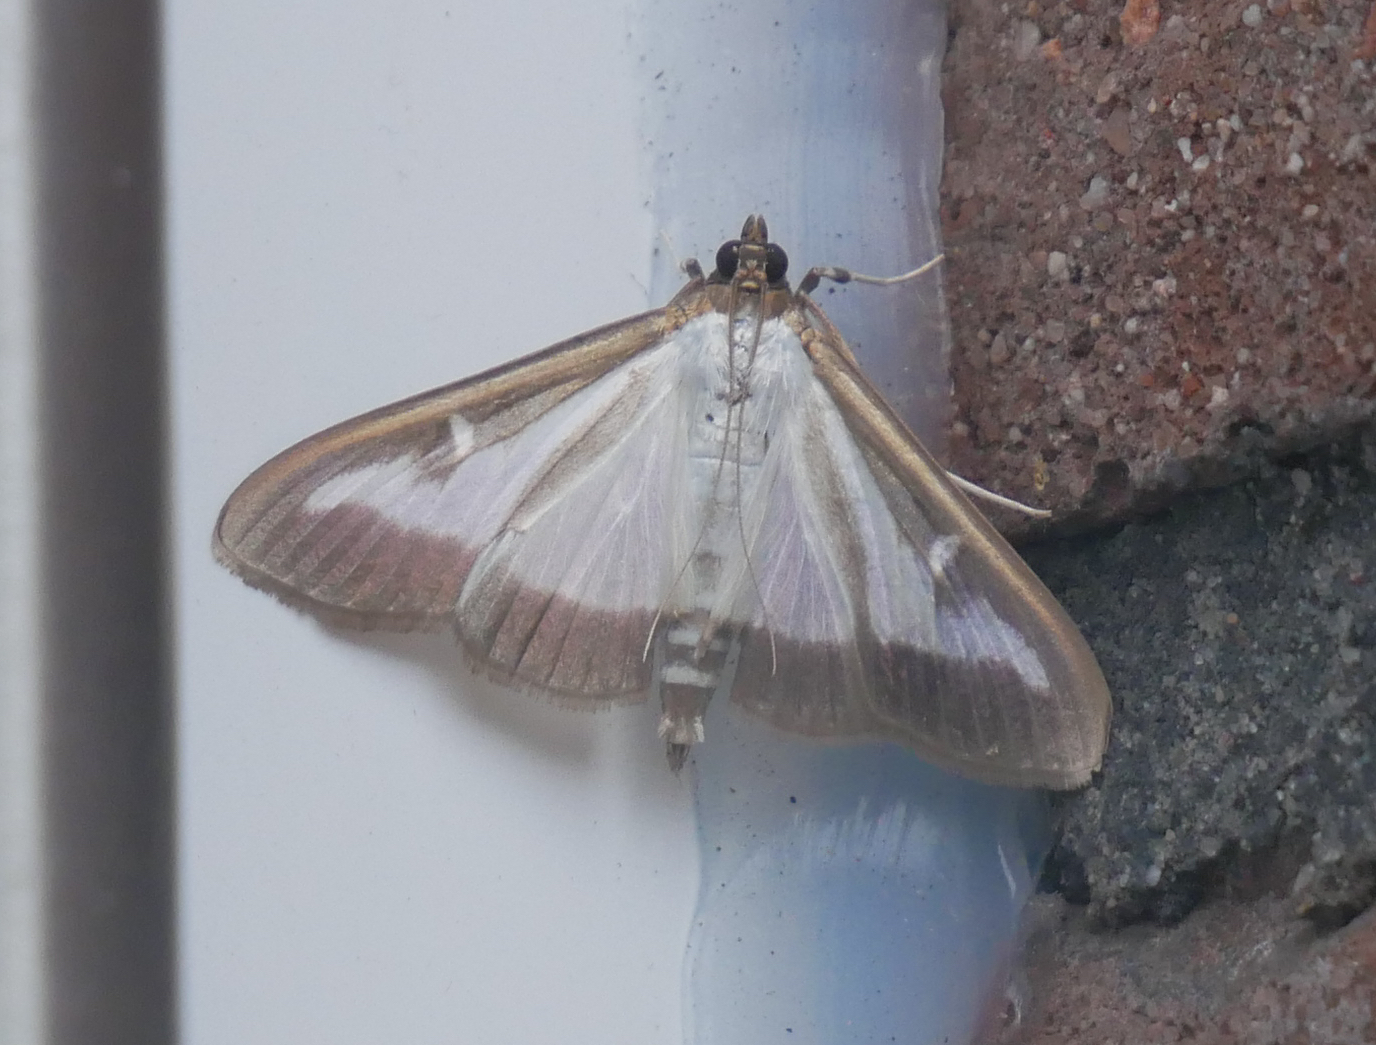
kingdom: Animalia
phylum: Arthropoda
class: Insecta
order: Lepidoptera
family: Crambidae
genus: Cydalima
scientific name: Cydalima perspectalis
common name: Box tree moth
